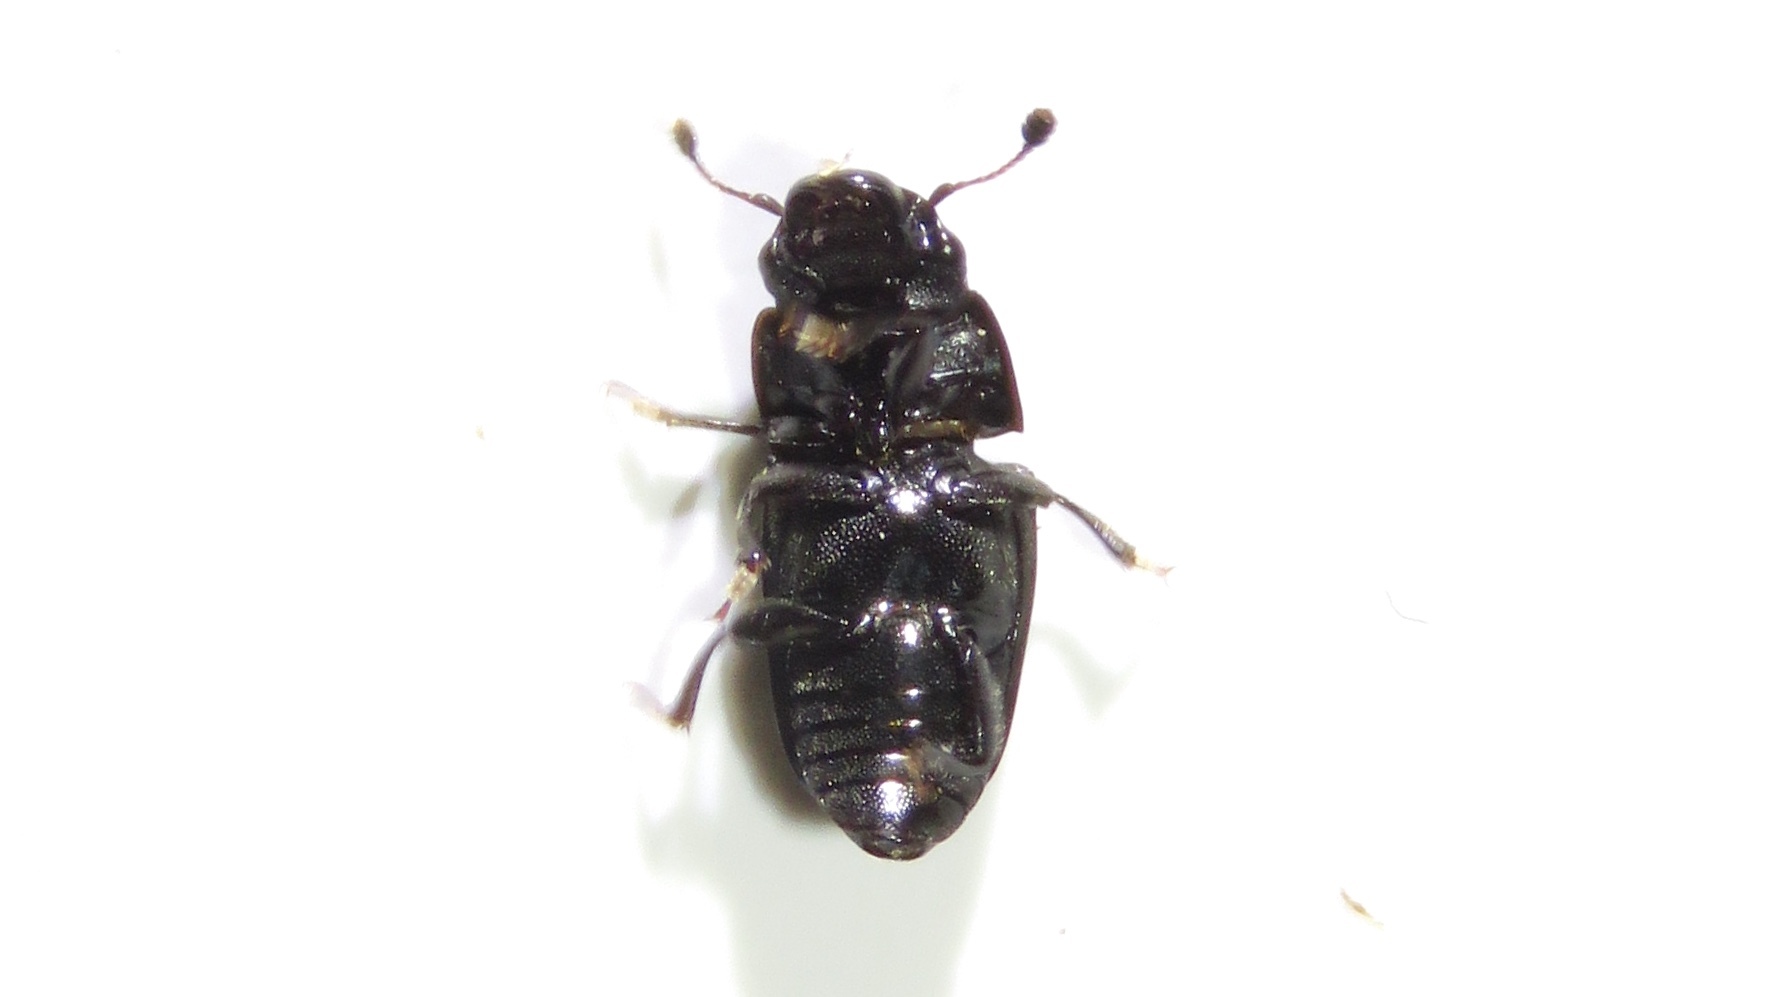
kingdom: Animalia
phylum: Arthropoda
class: Insecta
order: Coleoptera
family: Nitidulidae
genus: Glischrochilus
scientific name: Glischrochilus quadrisignatus
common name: Picnic beetle
